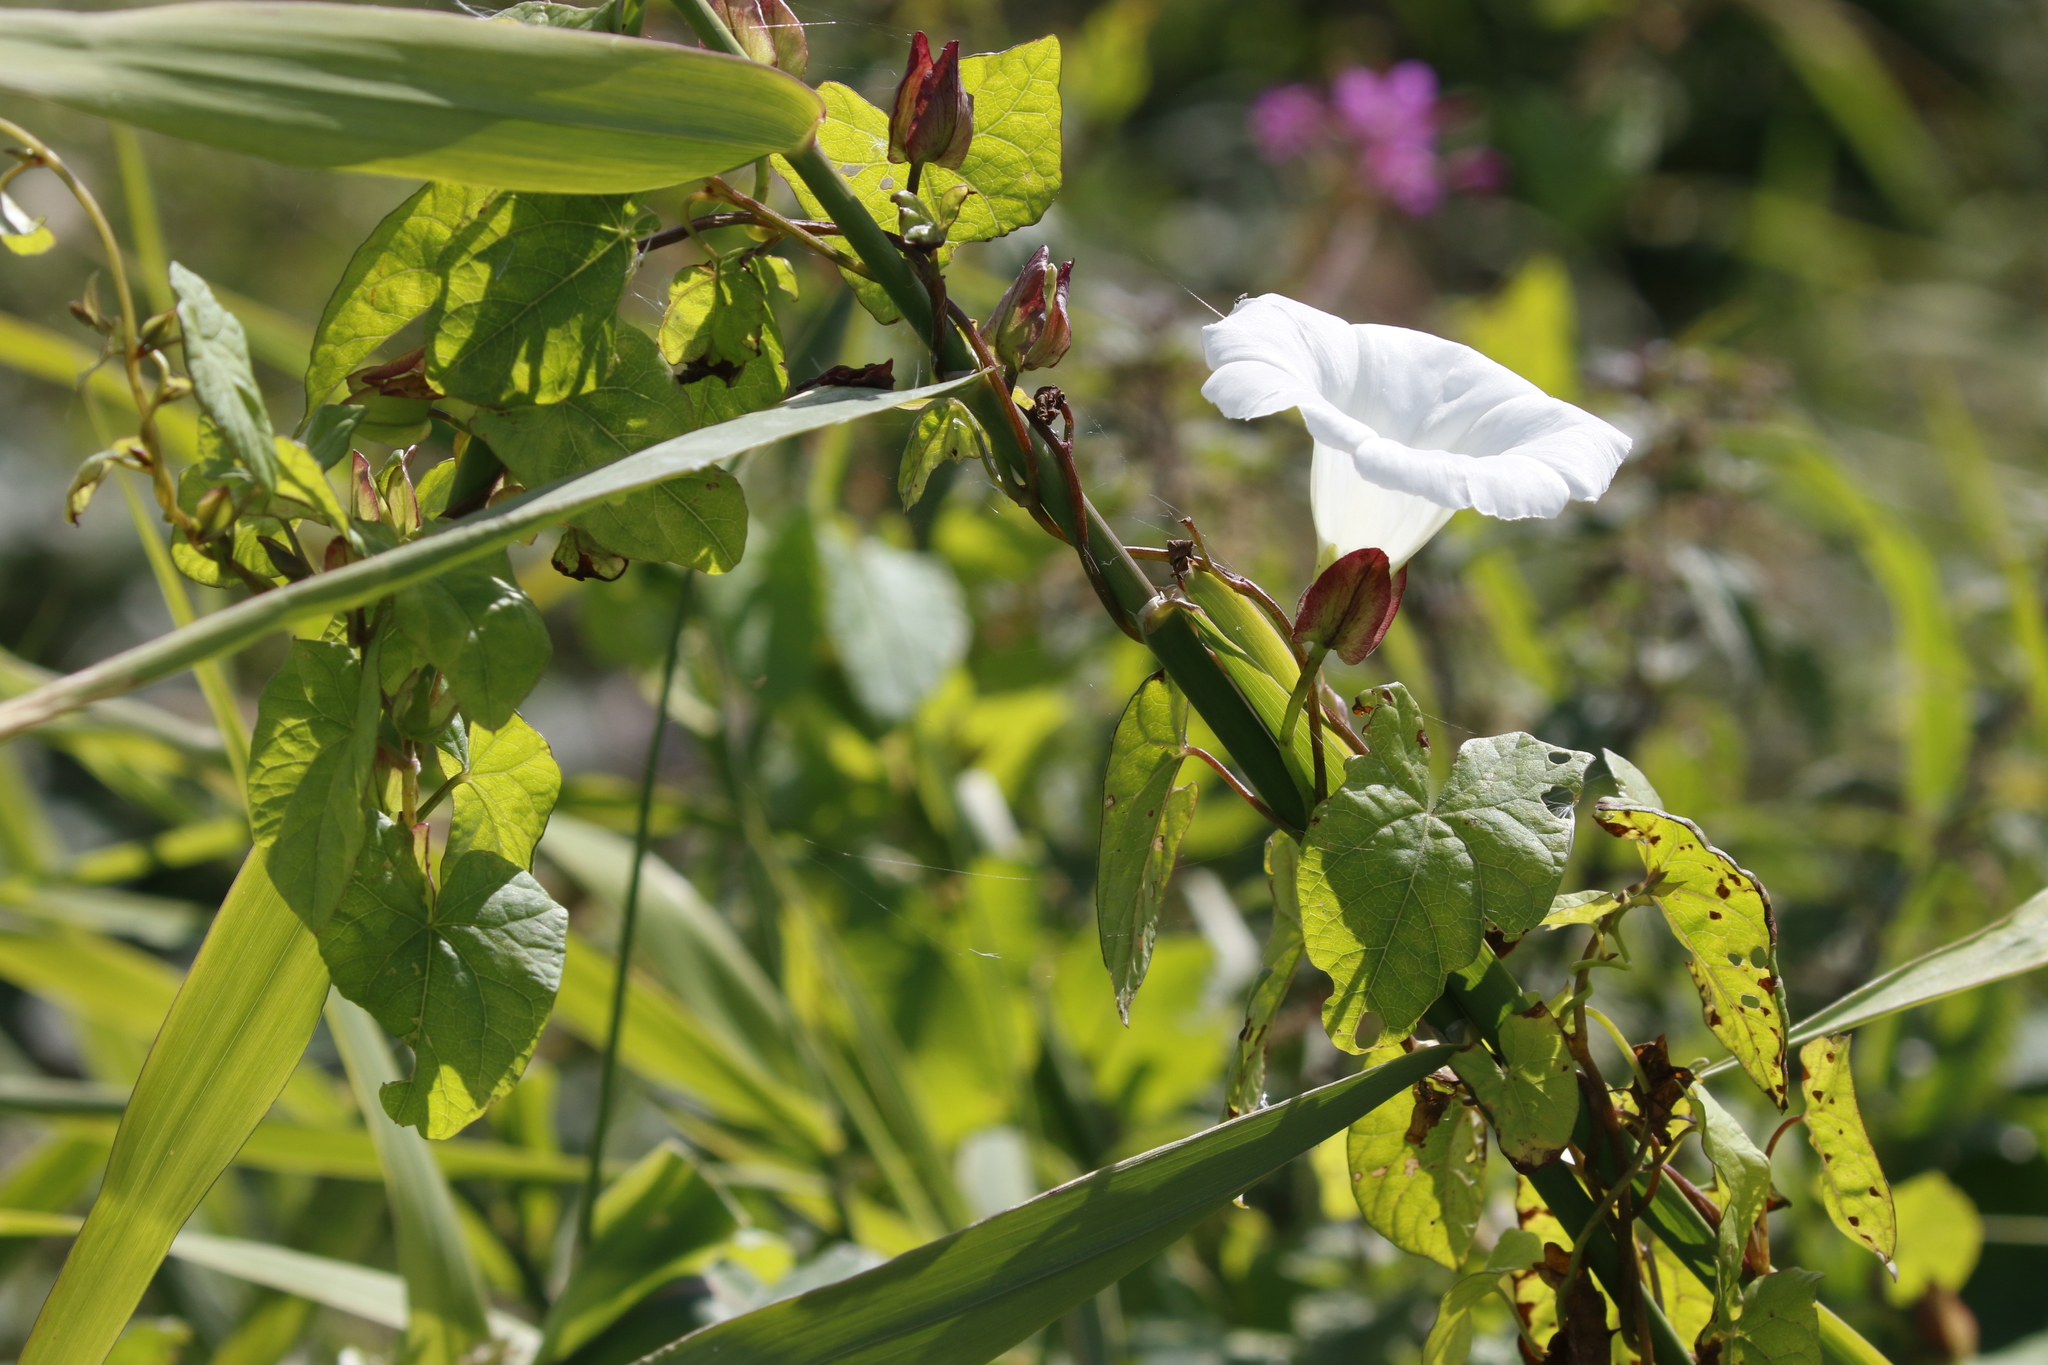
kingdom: Plantae
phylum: Tracheophyta
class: Magnoliopsida
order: Solanales
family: Convolvulaceae
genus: Calystegia
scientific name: Calystegia sepium
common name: Hedge bindweed
